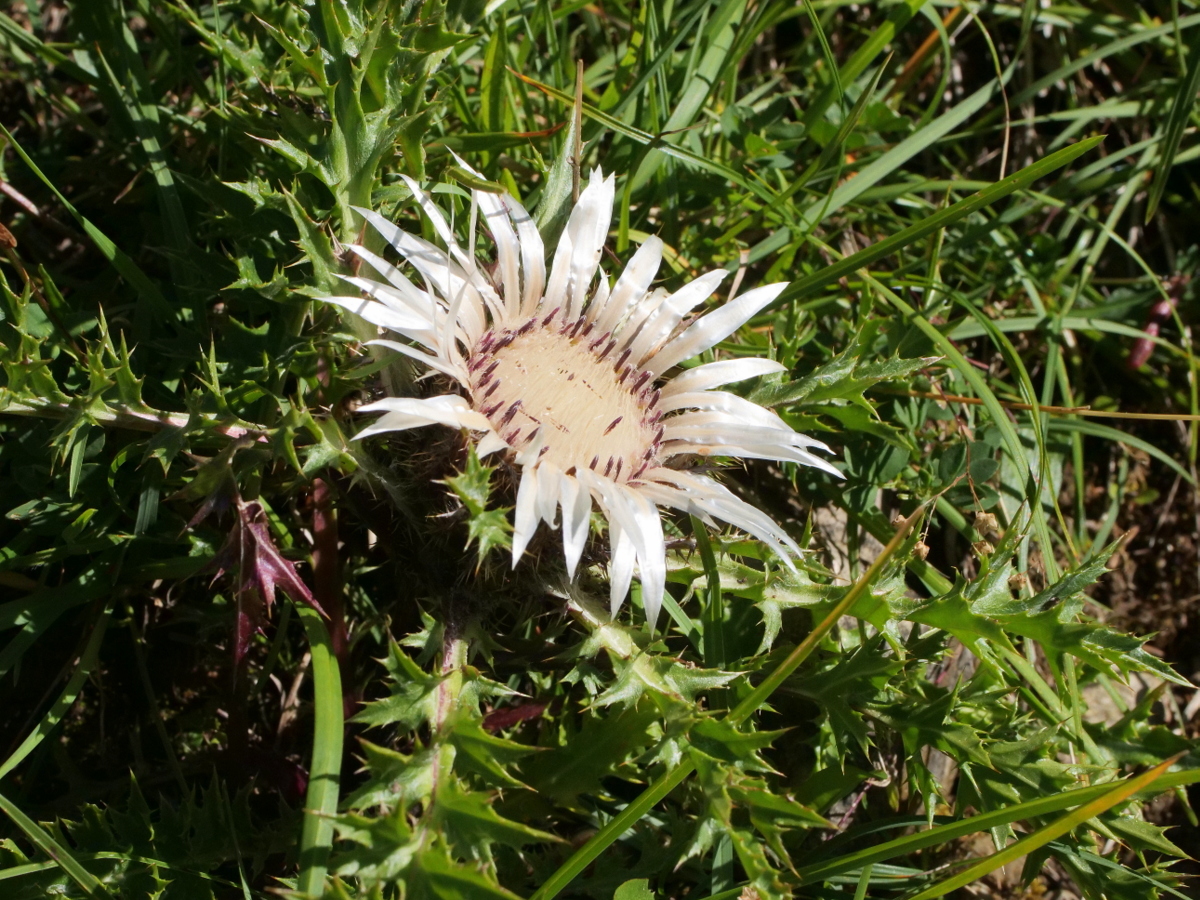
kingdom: Plantae
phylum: Tracheophyta
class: Magnoliopsida
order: Asterales
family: Asteraceae
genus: Carlina
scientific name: Carlina acaulis
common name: Stemless carline thistle
